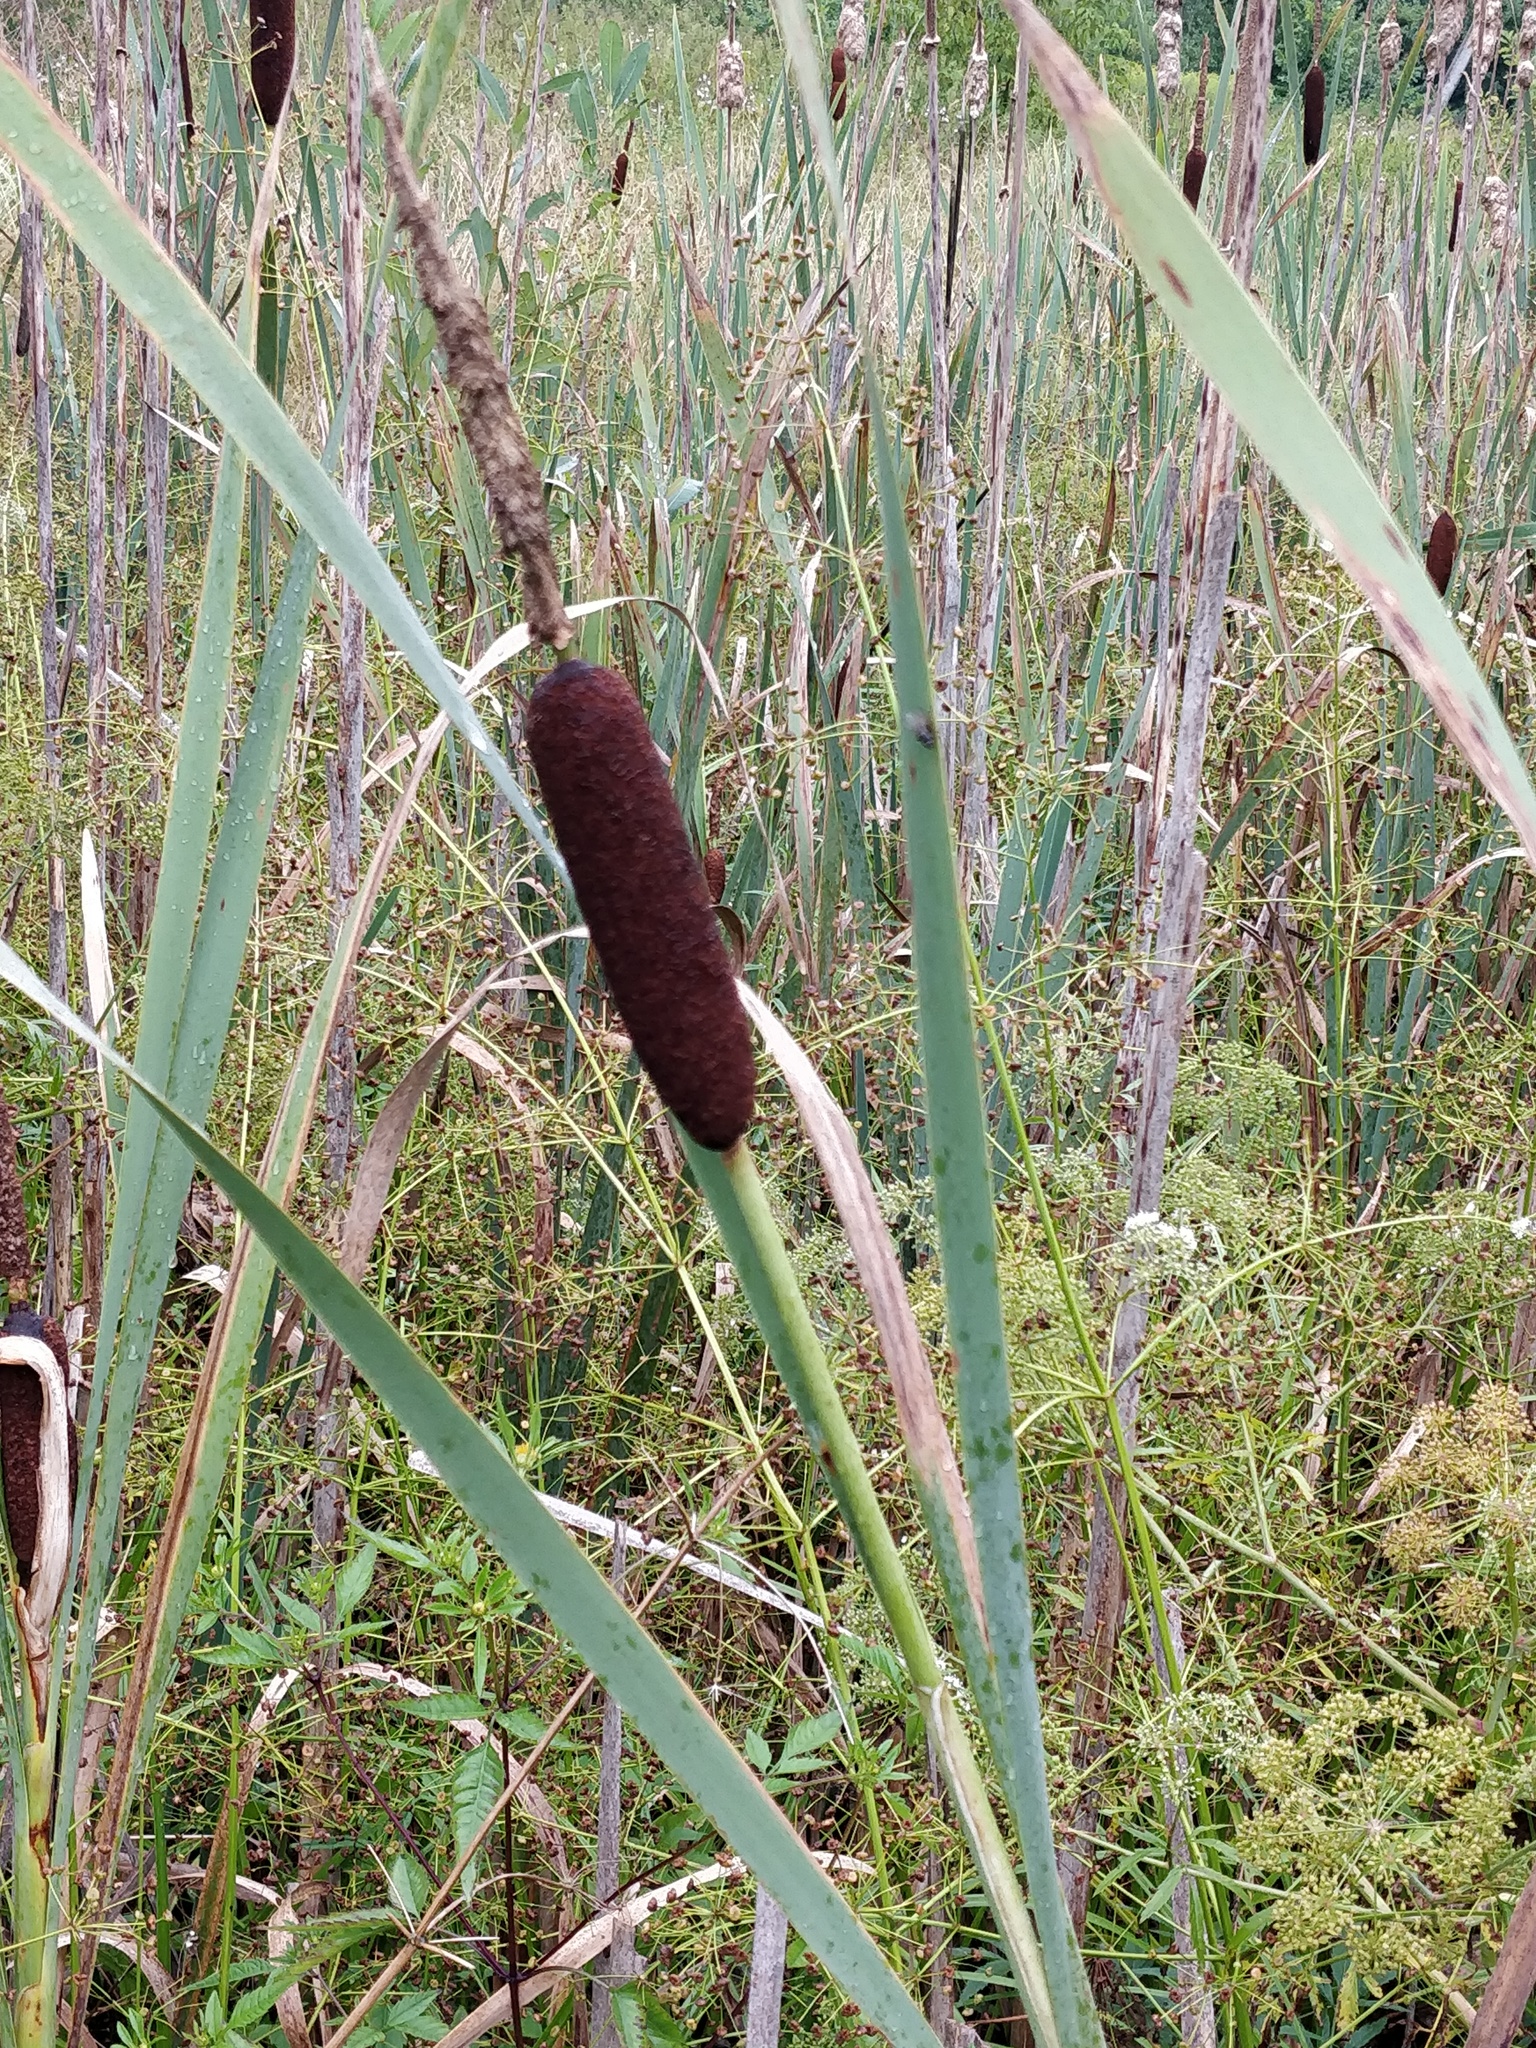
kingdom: Plantae
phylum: Tracheophyta
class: Liliopsida
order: Poales
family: Typhaceae
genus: Typha
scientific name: Typha latifolia
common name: Broadleaf cattail
